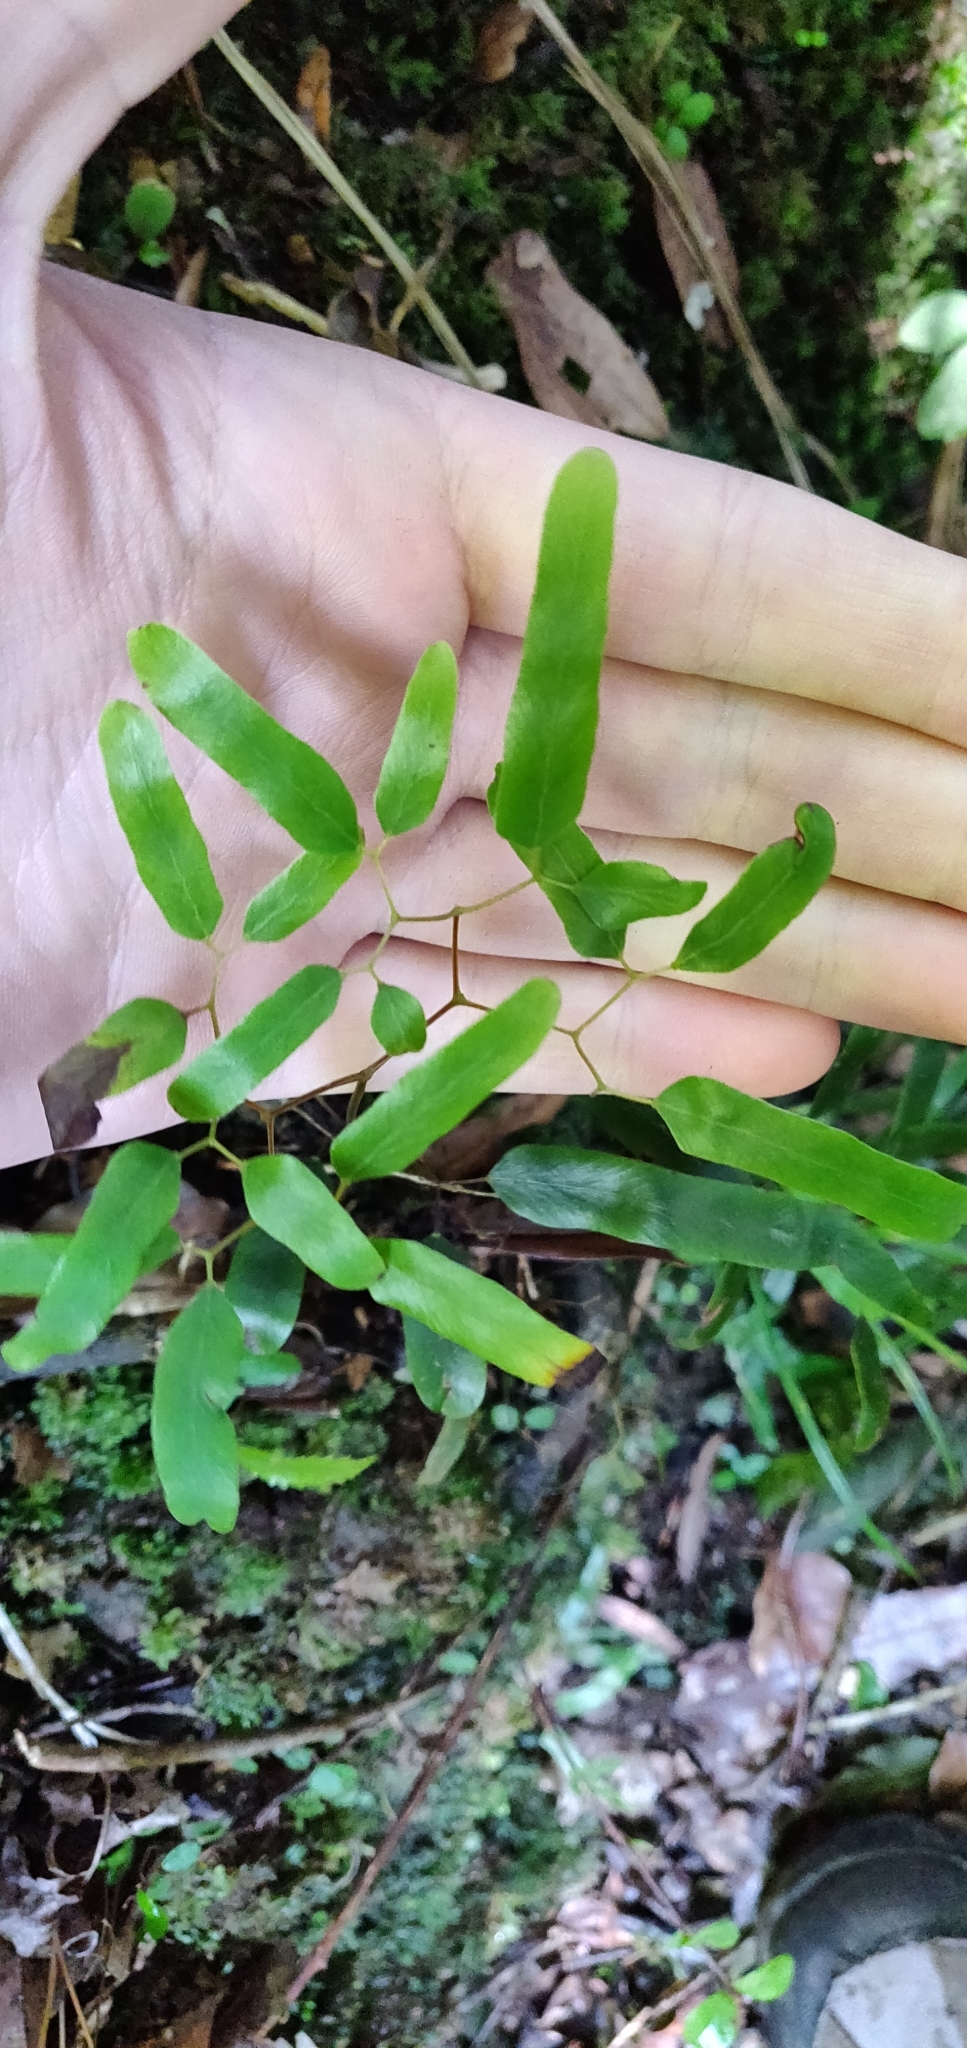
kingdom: Plantae
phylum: Tracheophyta
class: Polypodiopsida
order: Schizaeales
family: Lygodiaceae
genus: Lygodium
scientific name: Lygodium articulatum
